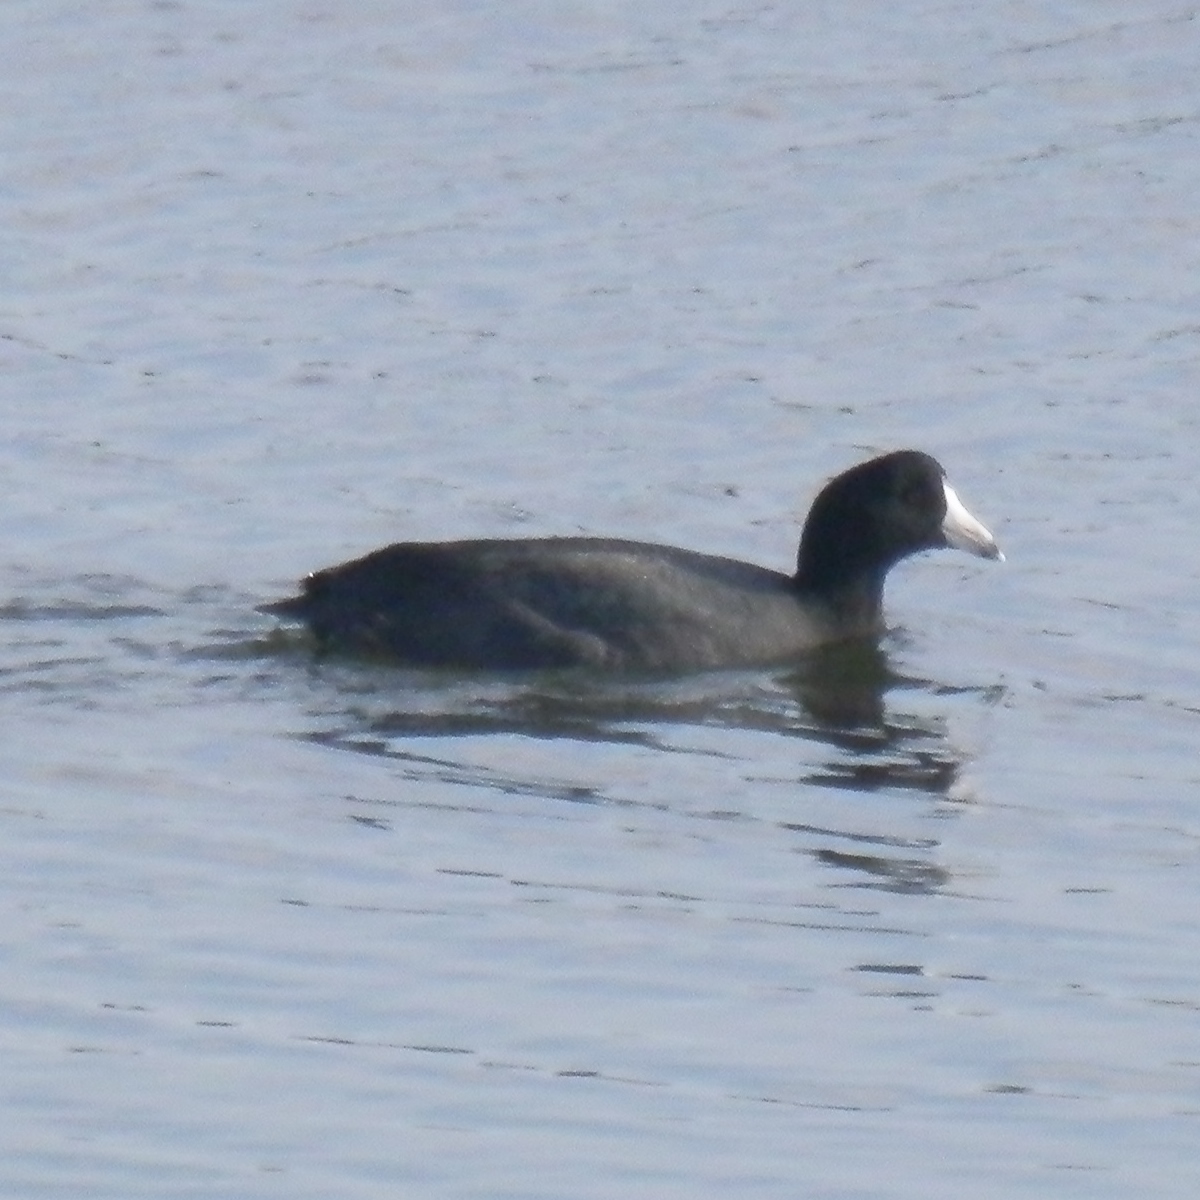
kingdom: Animalia
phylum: Chordata
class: Aves
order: Gruiformes
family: Rallidae
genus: Fulica
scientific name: Fulica americana
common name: American coot
